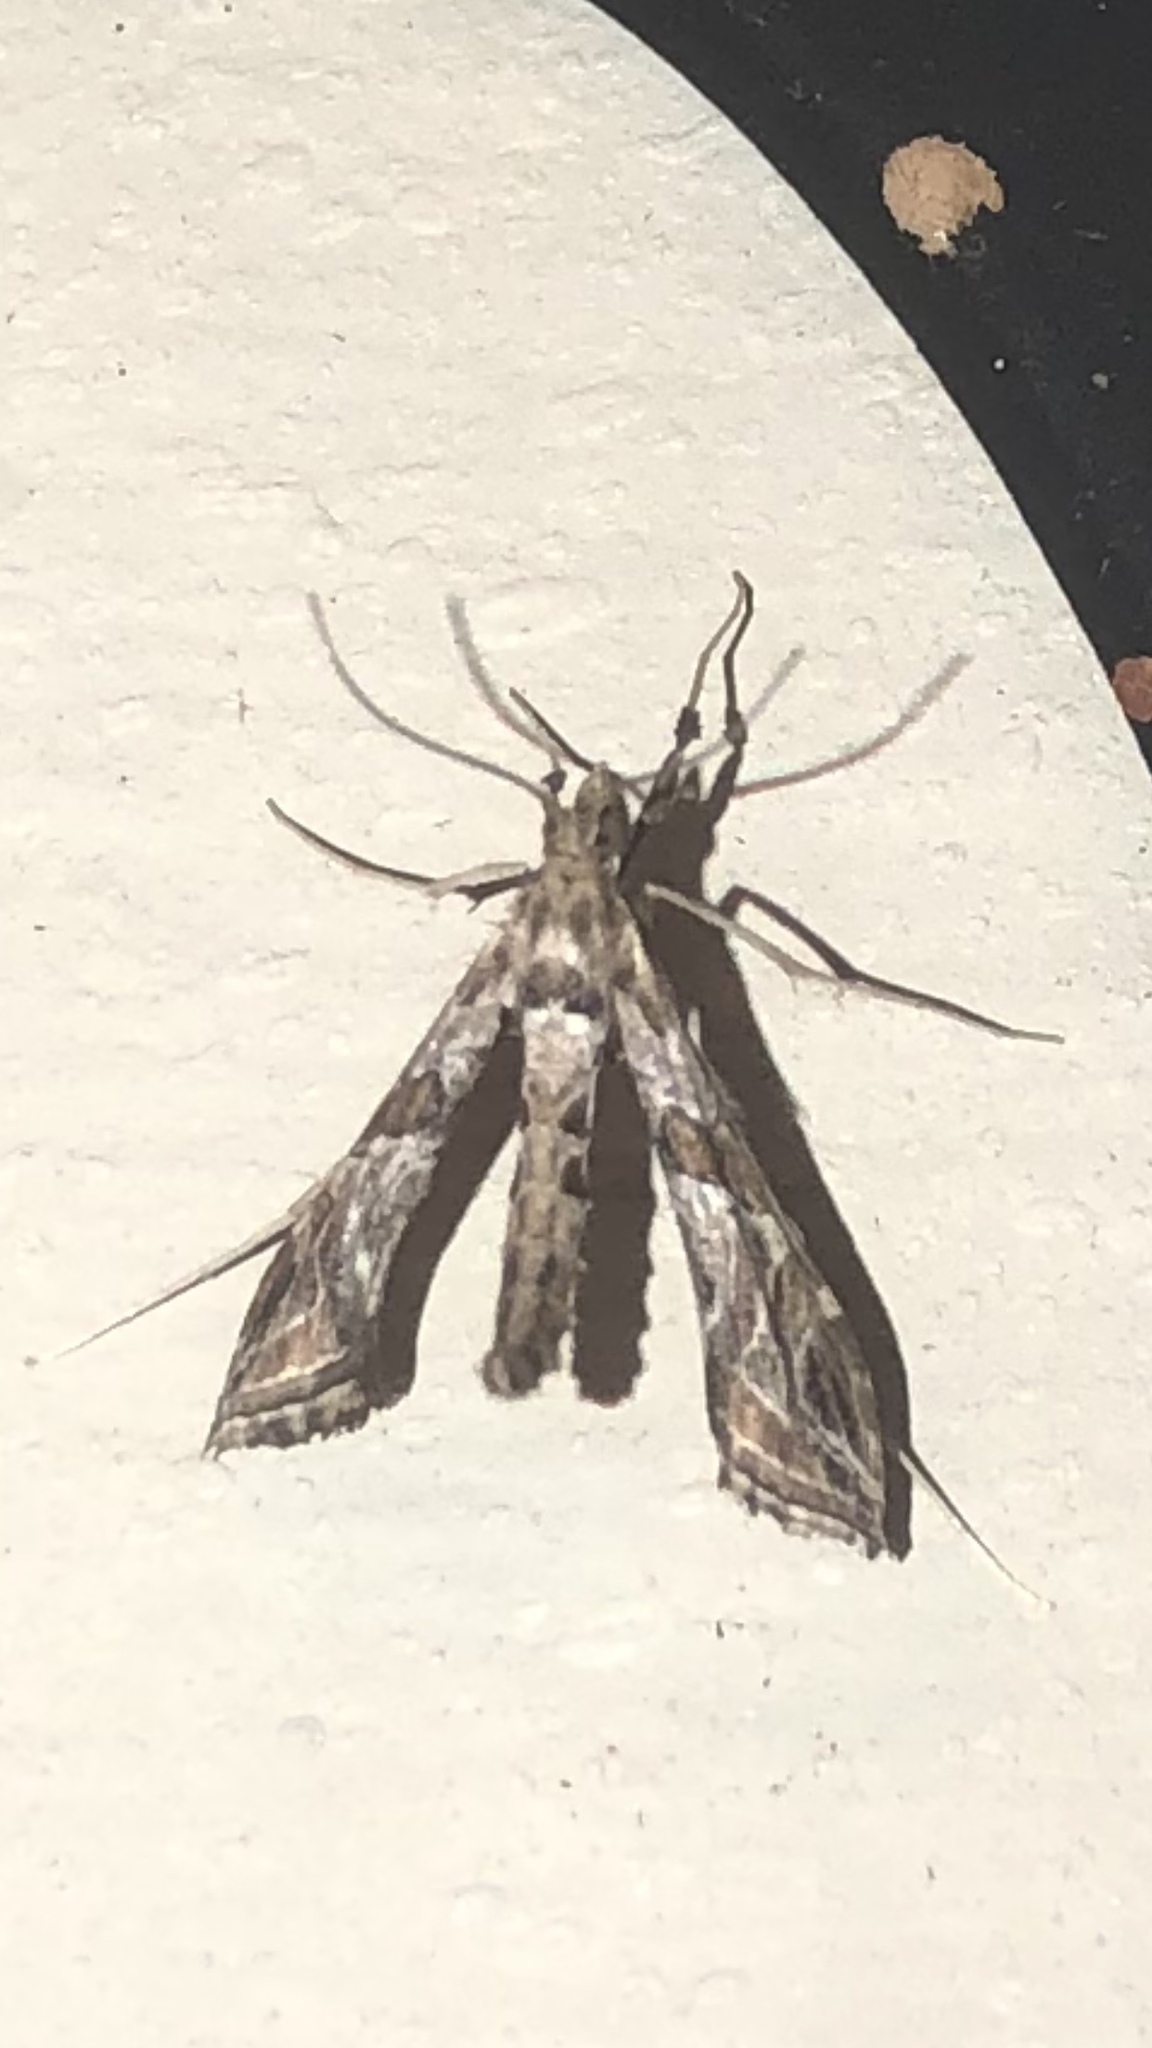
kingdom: Animalia
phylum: Arthropoda
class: Insecta
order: Lepidoptera
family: Crambidae
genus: Lineodes
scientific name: Lineodes interrupta
